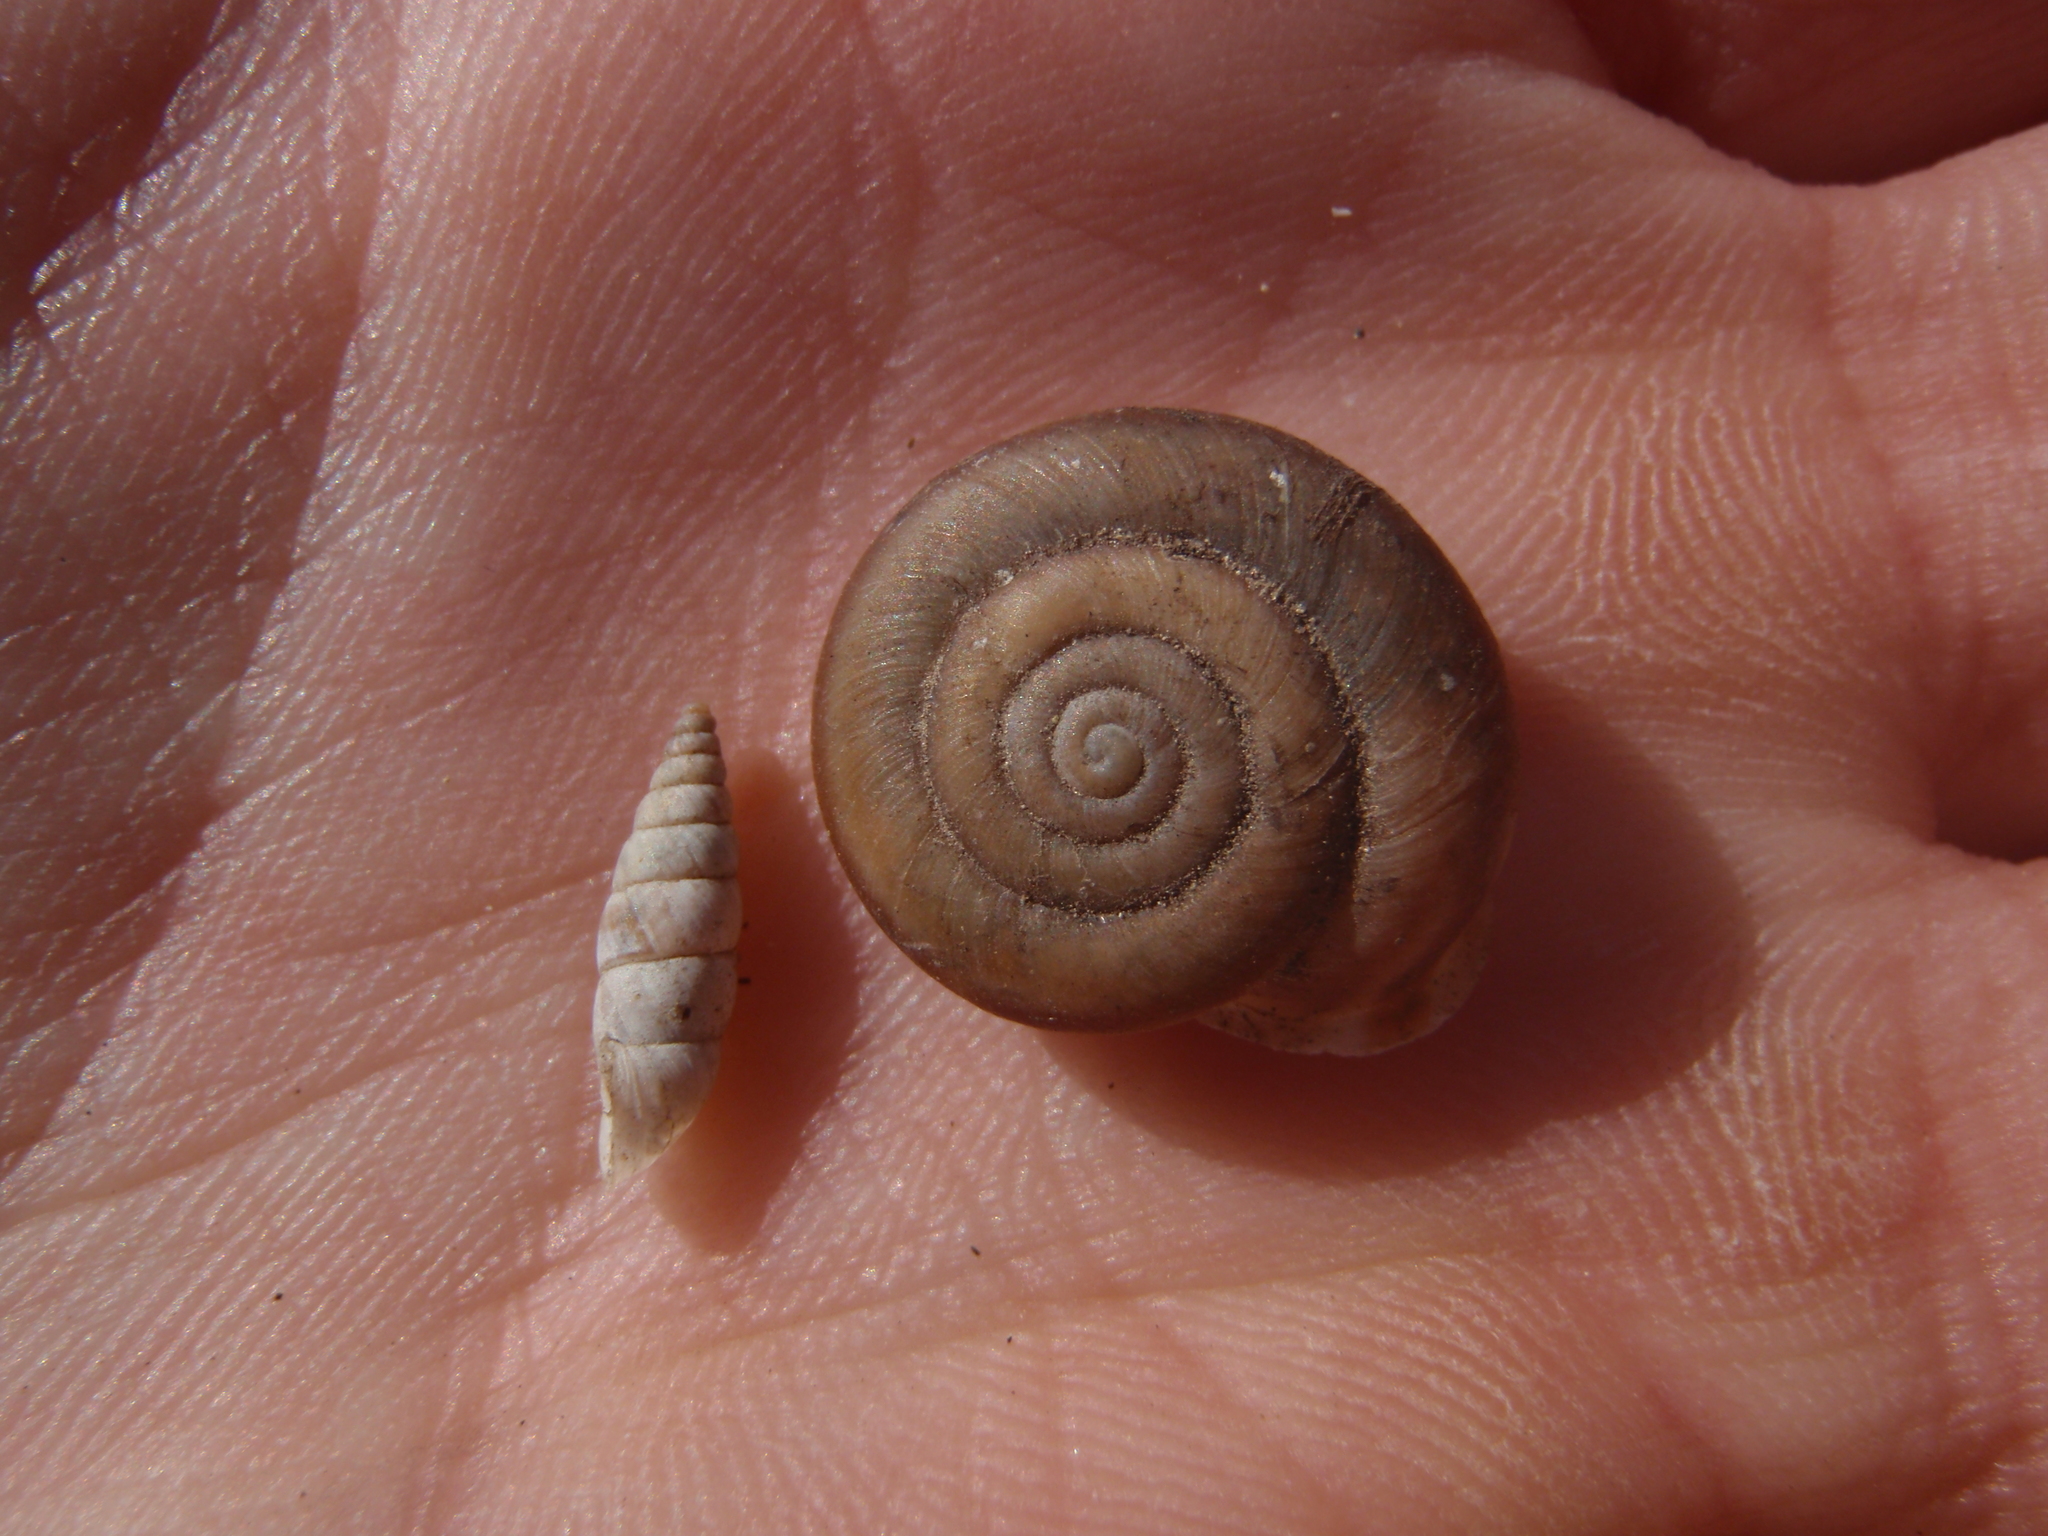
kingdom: Animalia
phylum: Mollusca
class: Gastropoda
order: Stylommatophora
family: Helicidae
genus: Corneola
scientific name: Corneola squamatina
